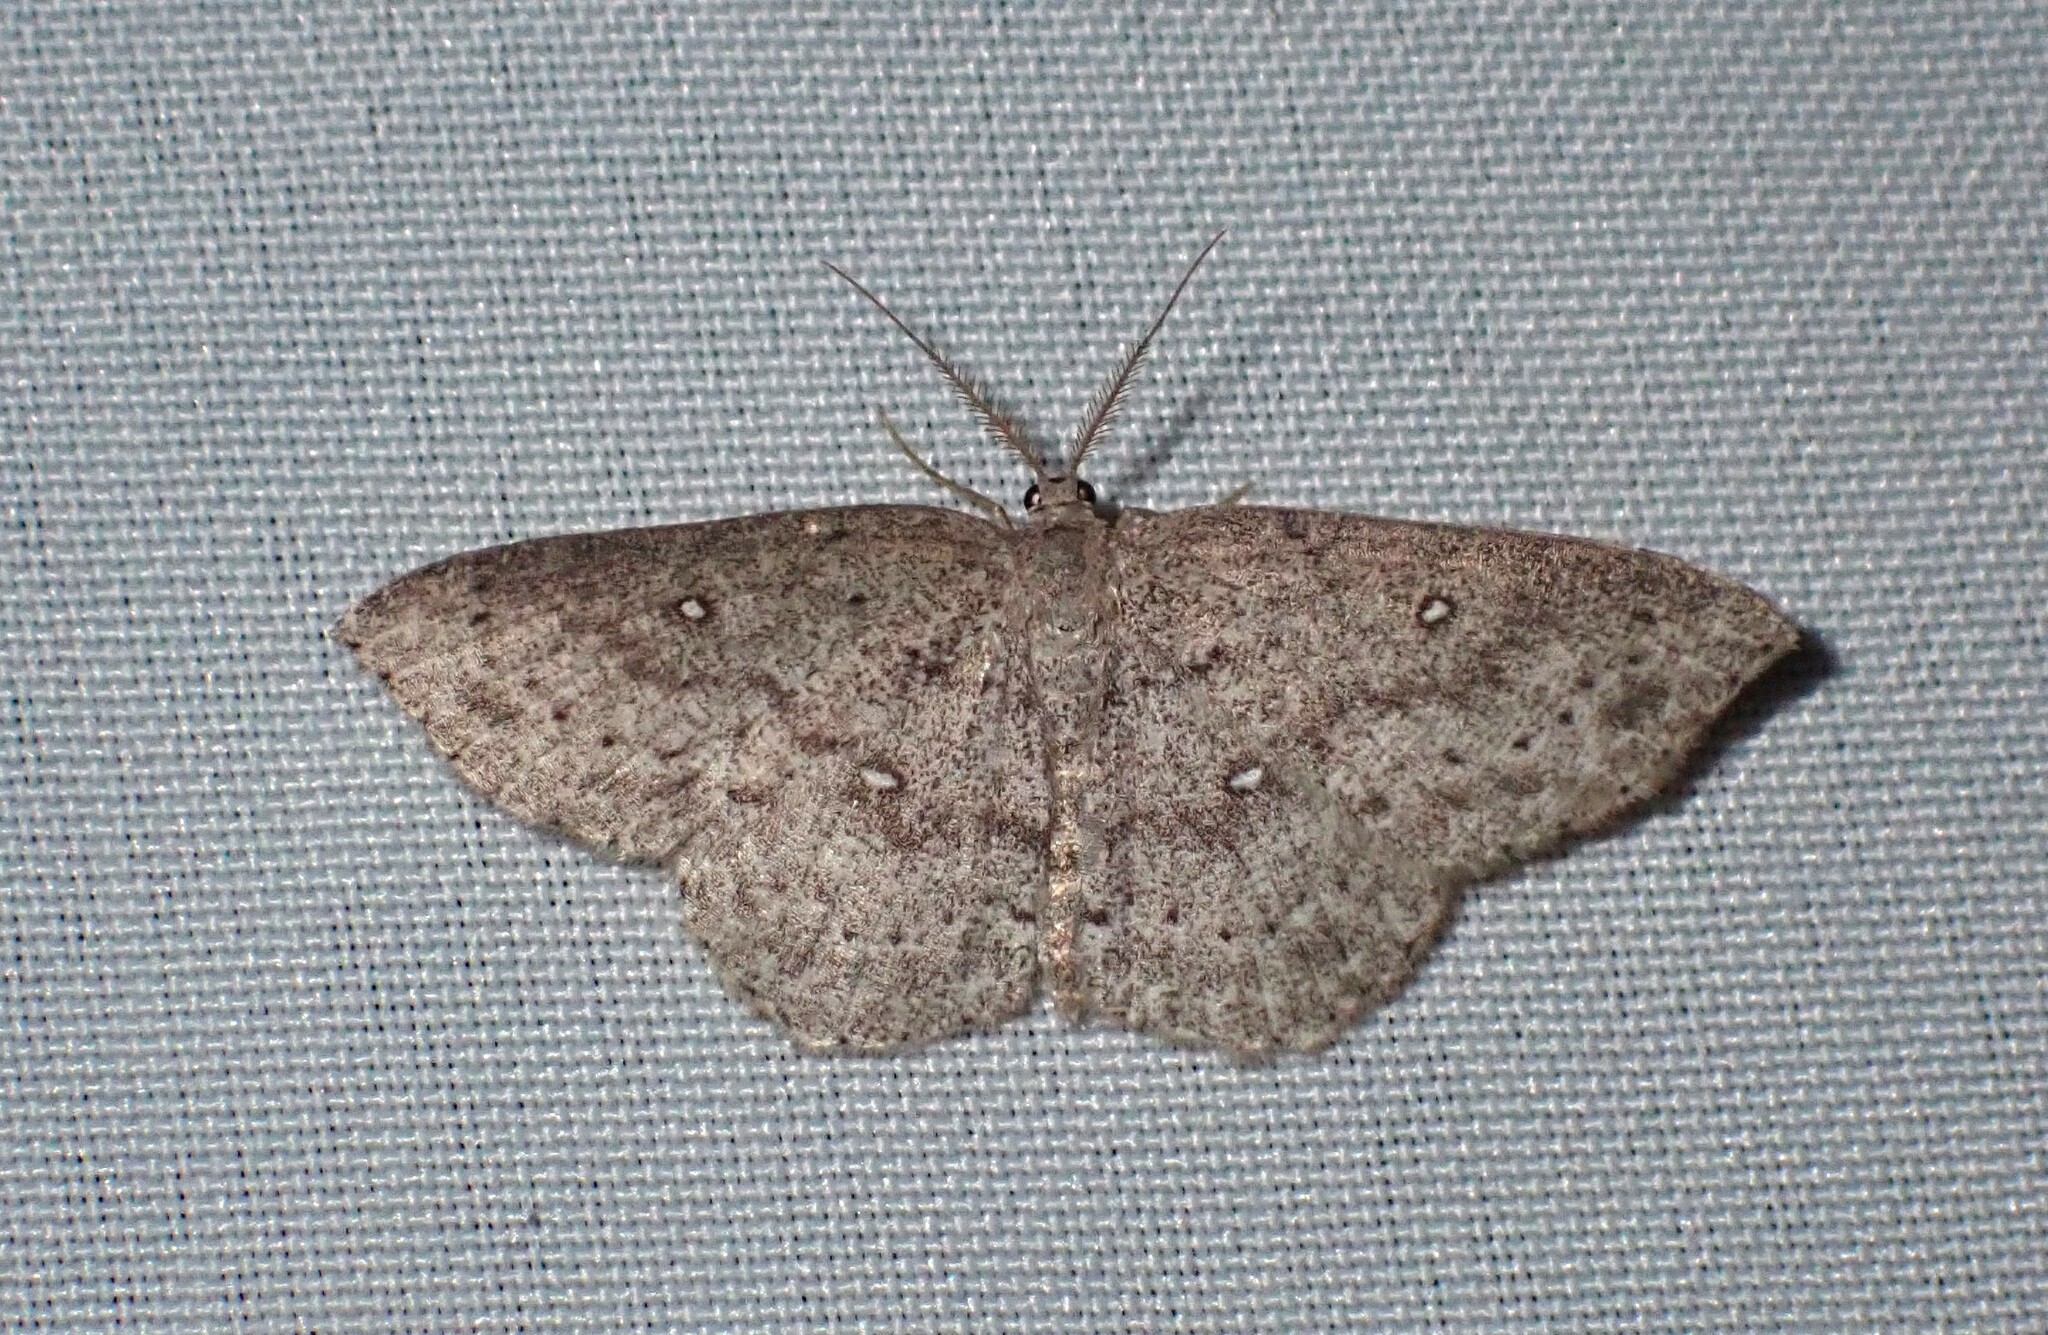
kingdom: Animalia
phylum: Arthropoda
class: Insecta
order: Lepidoptera
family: Geometridae
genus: Cyclophora
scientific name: Cyclophora pendulinaria
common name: Sweet fern geometer
